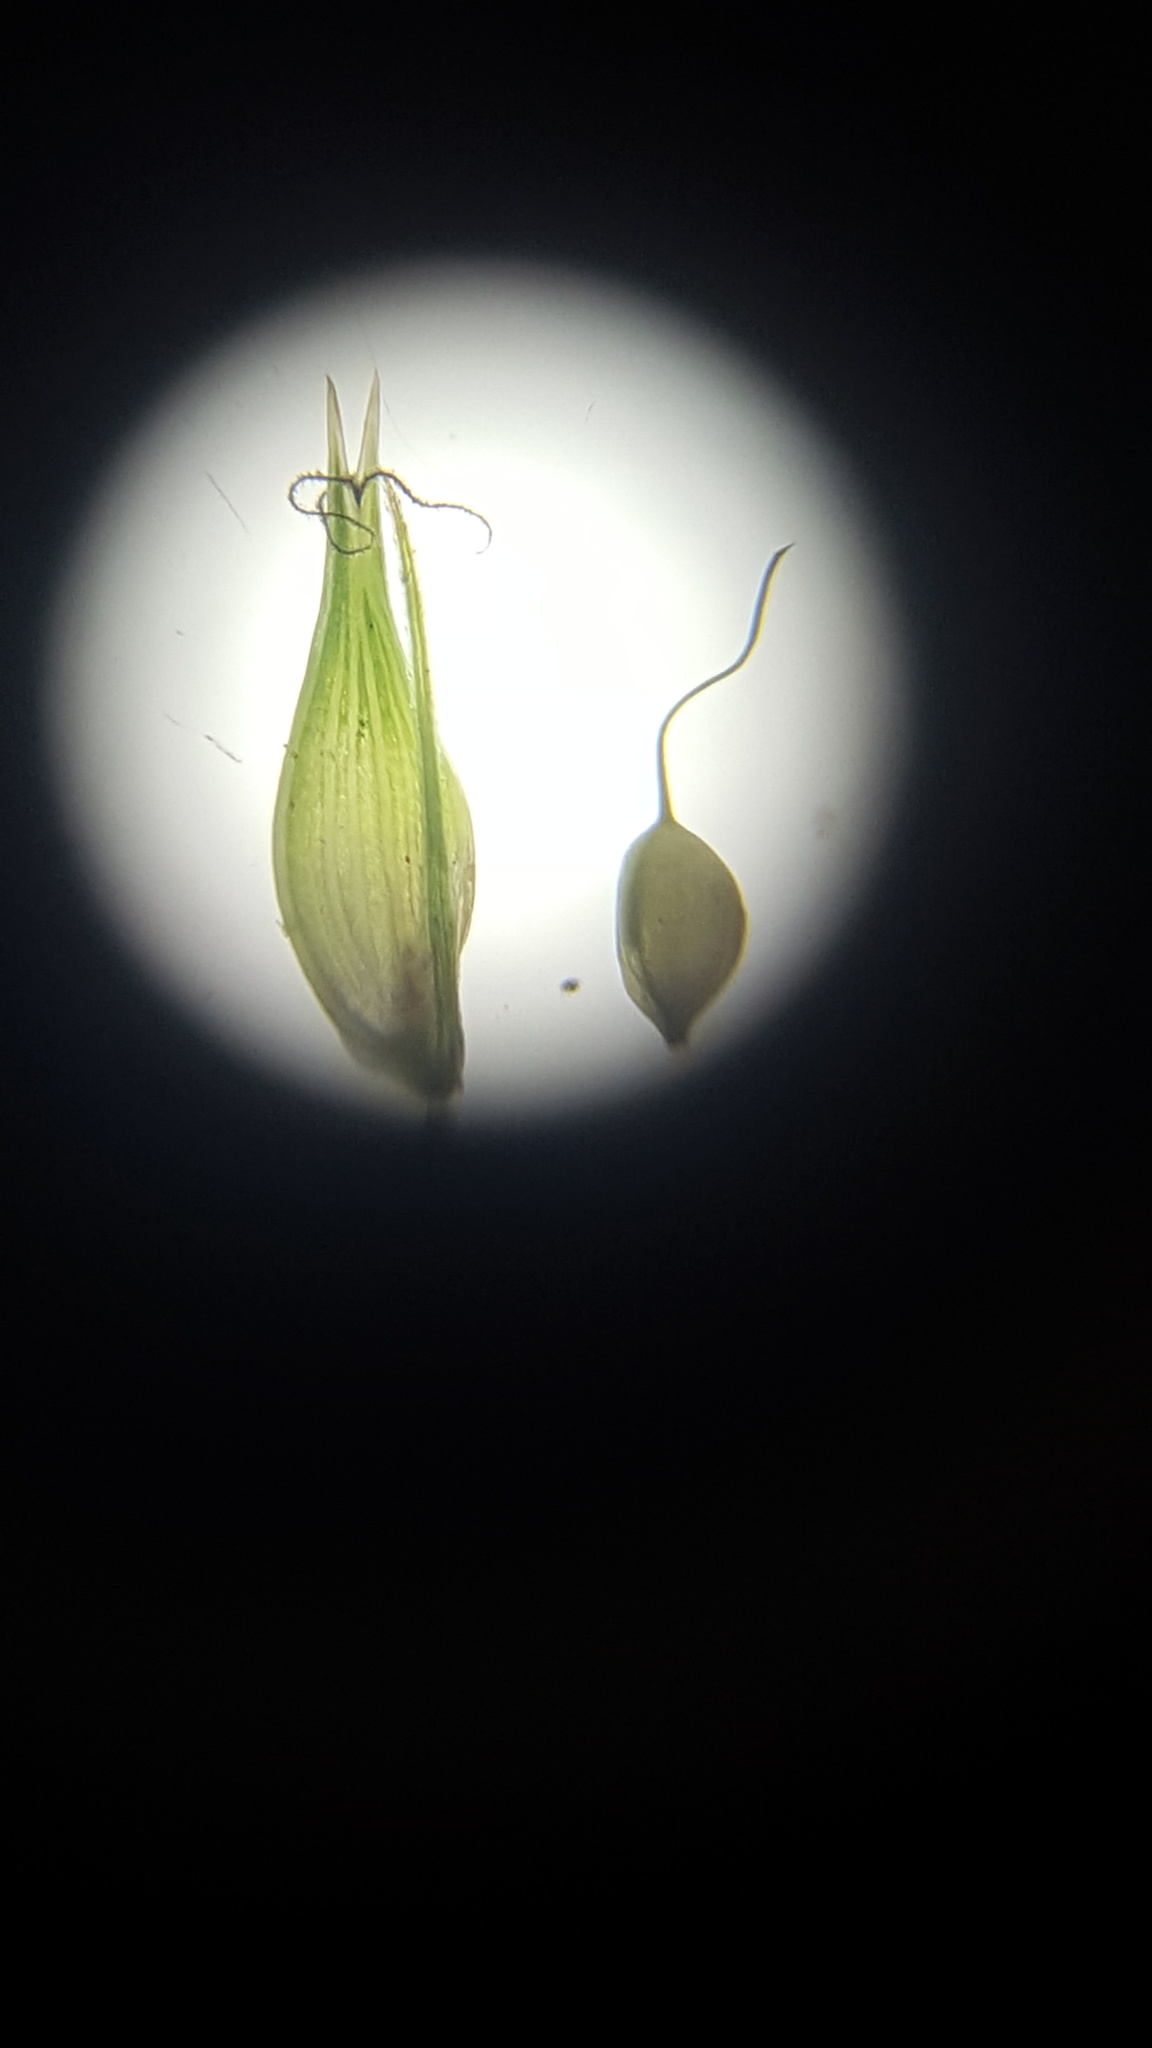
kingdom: Plantae
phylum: Tracheophyta
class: Liliopsida
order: Poales
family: Cyperaceae
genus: Carex
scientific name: Carex pseudocyperus
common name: Cyperus sedge
